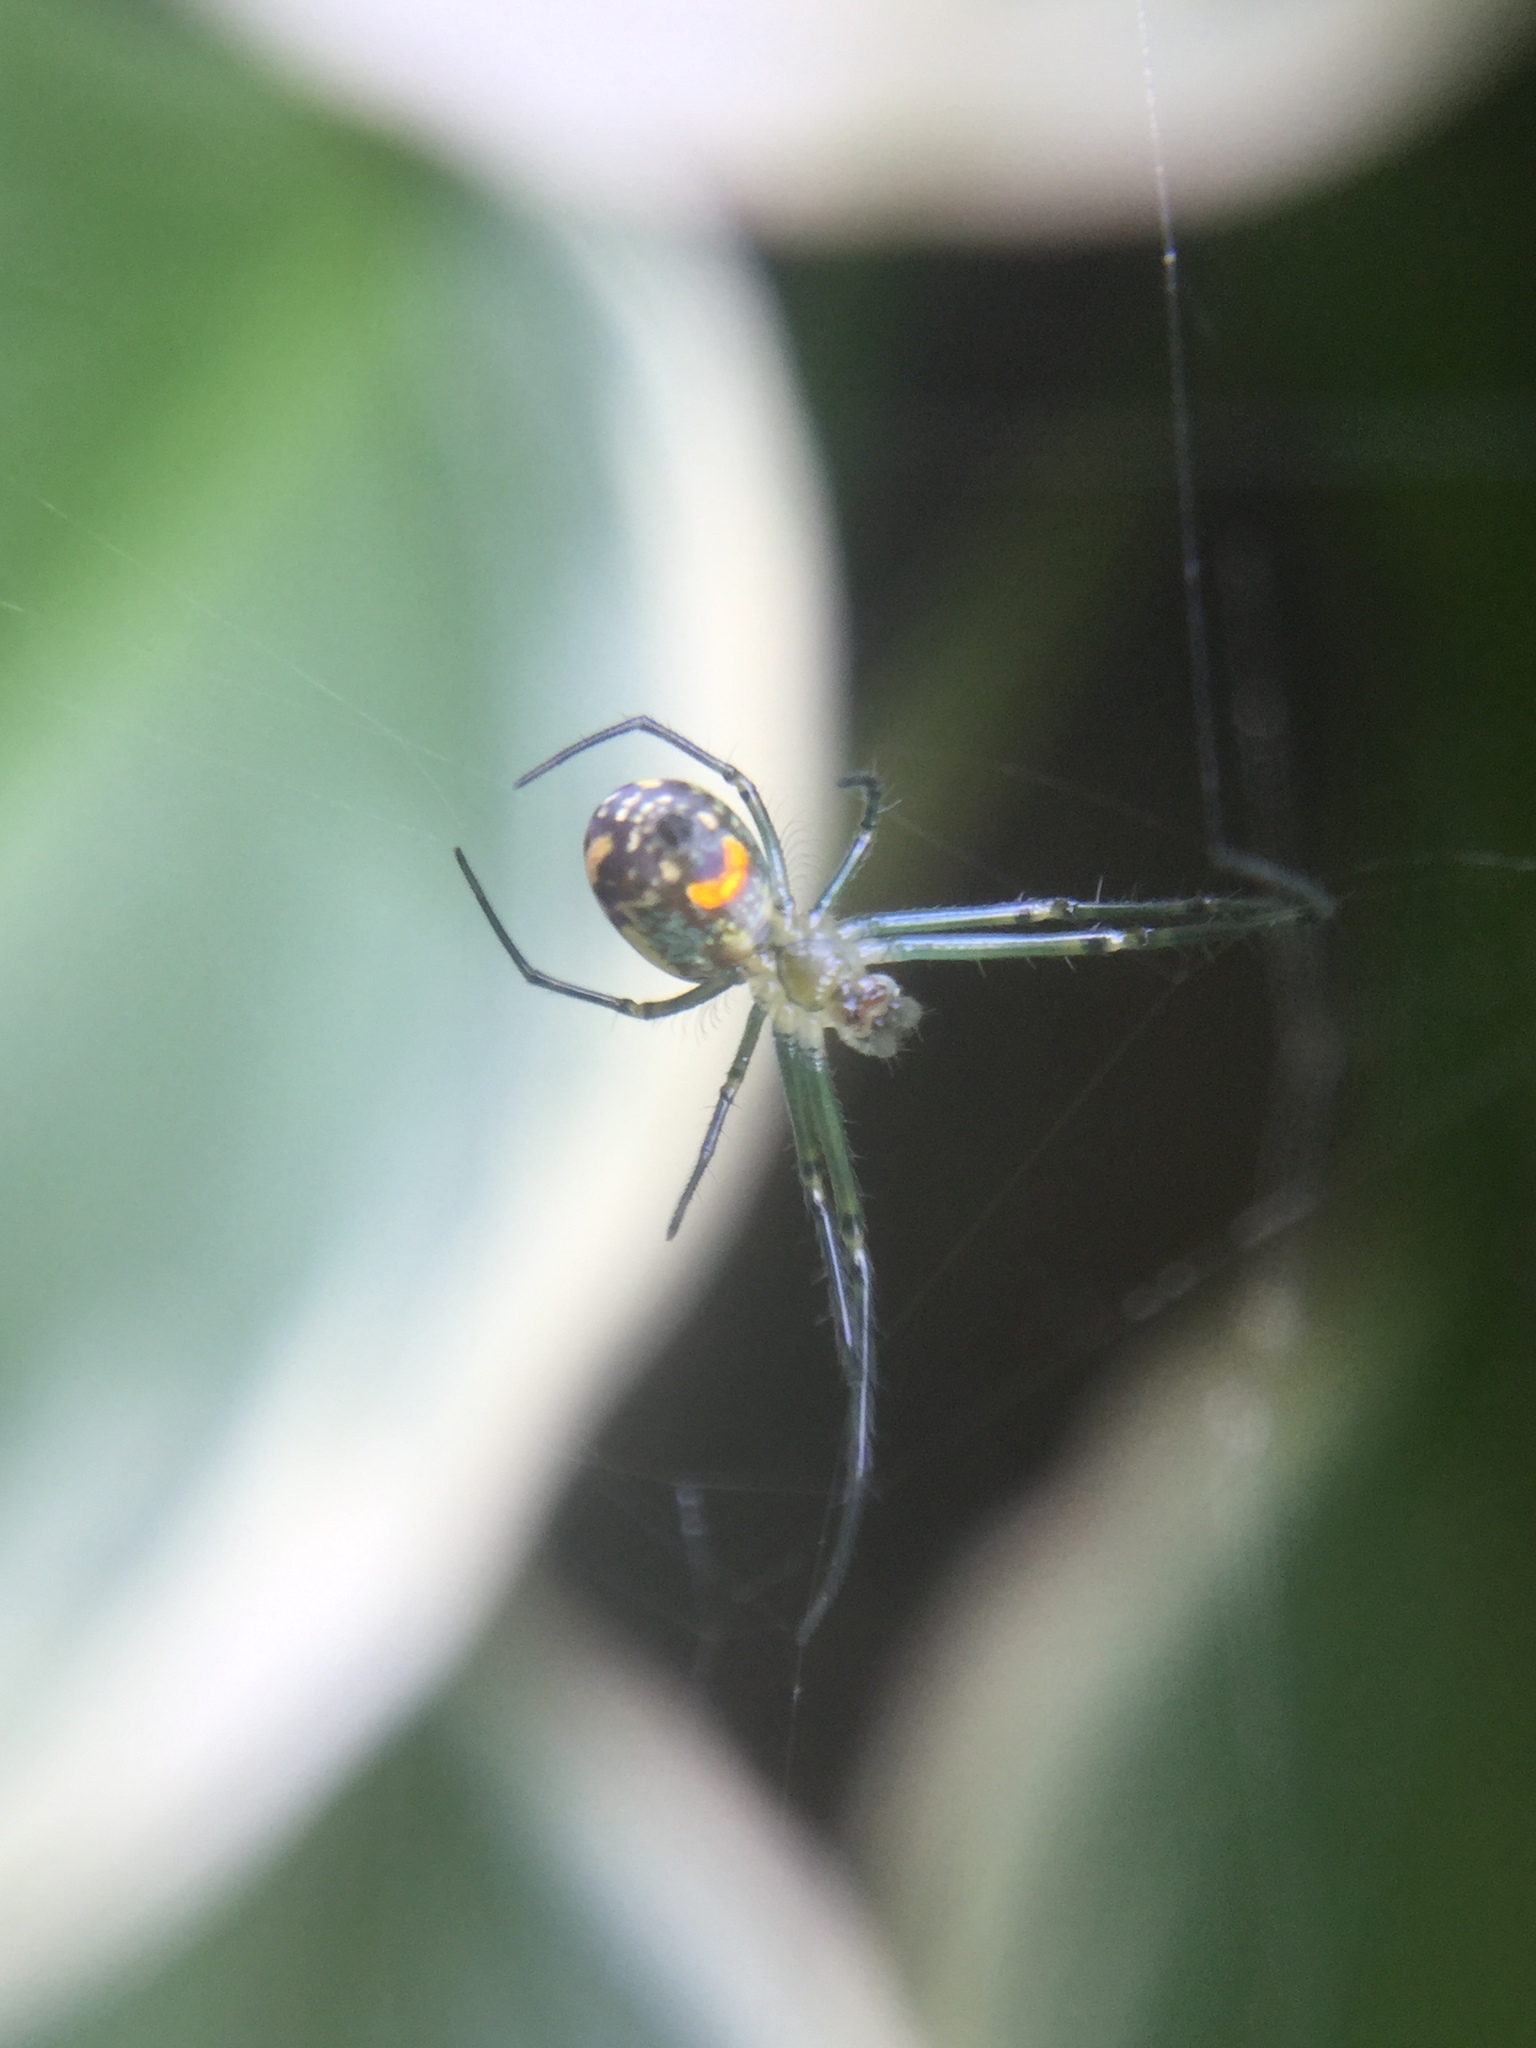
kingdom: Animalia
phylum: Arthropoda
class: Arachnida
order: Araneae
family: Tetragnathidae
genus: Leucauge
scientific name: Leucauge venusta
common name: Longjawed orb weavers
